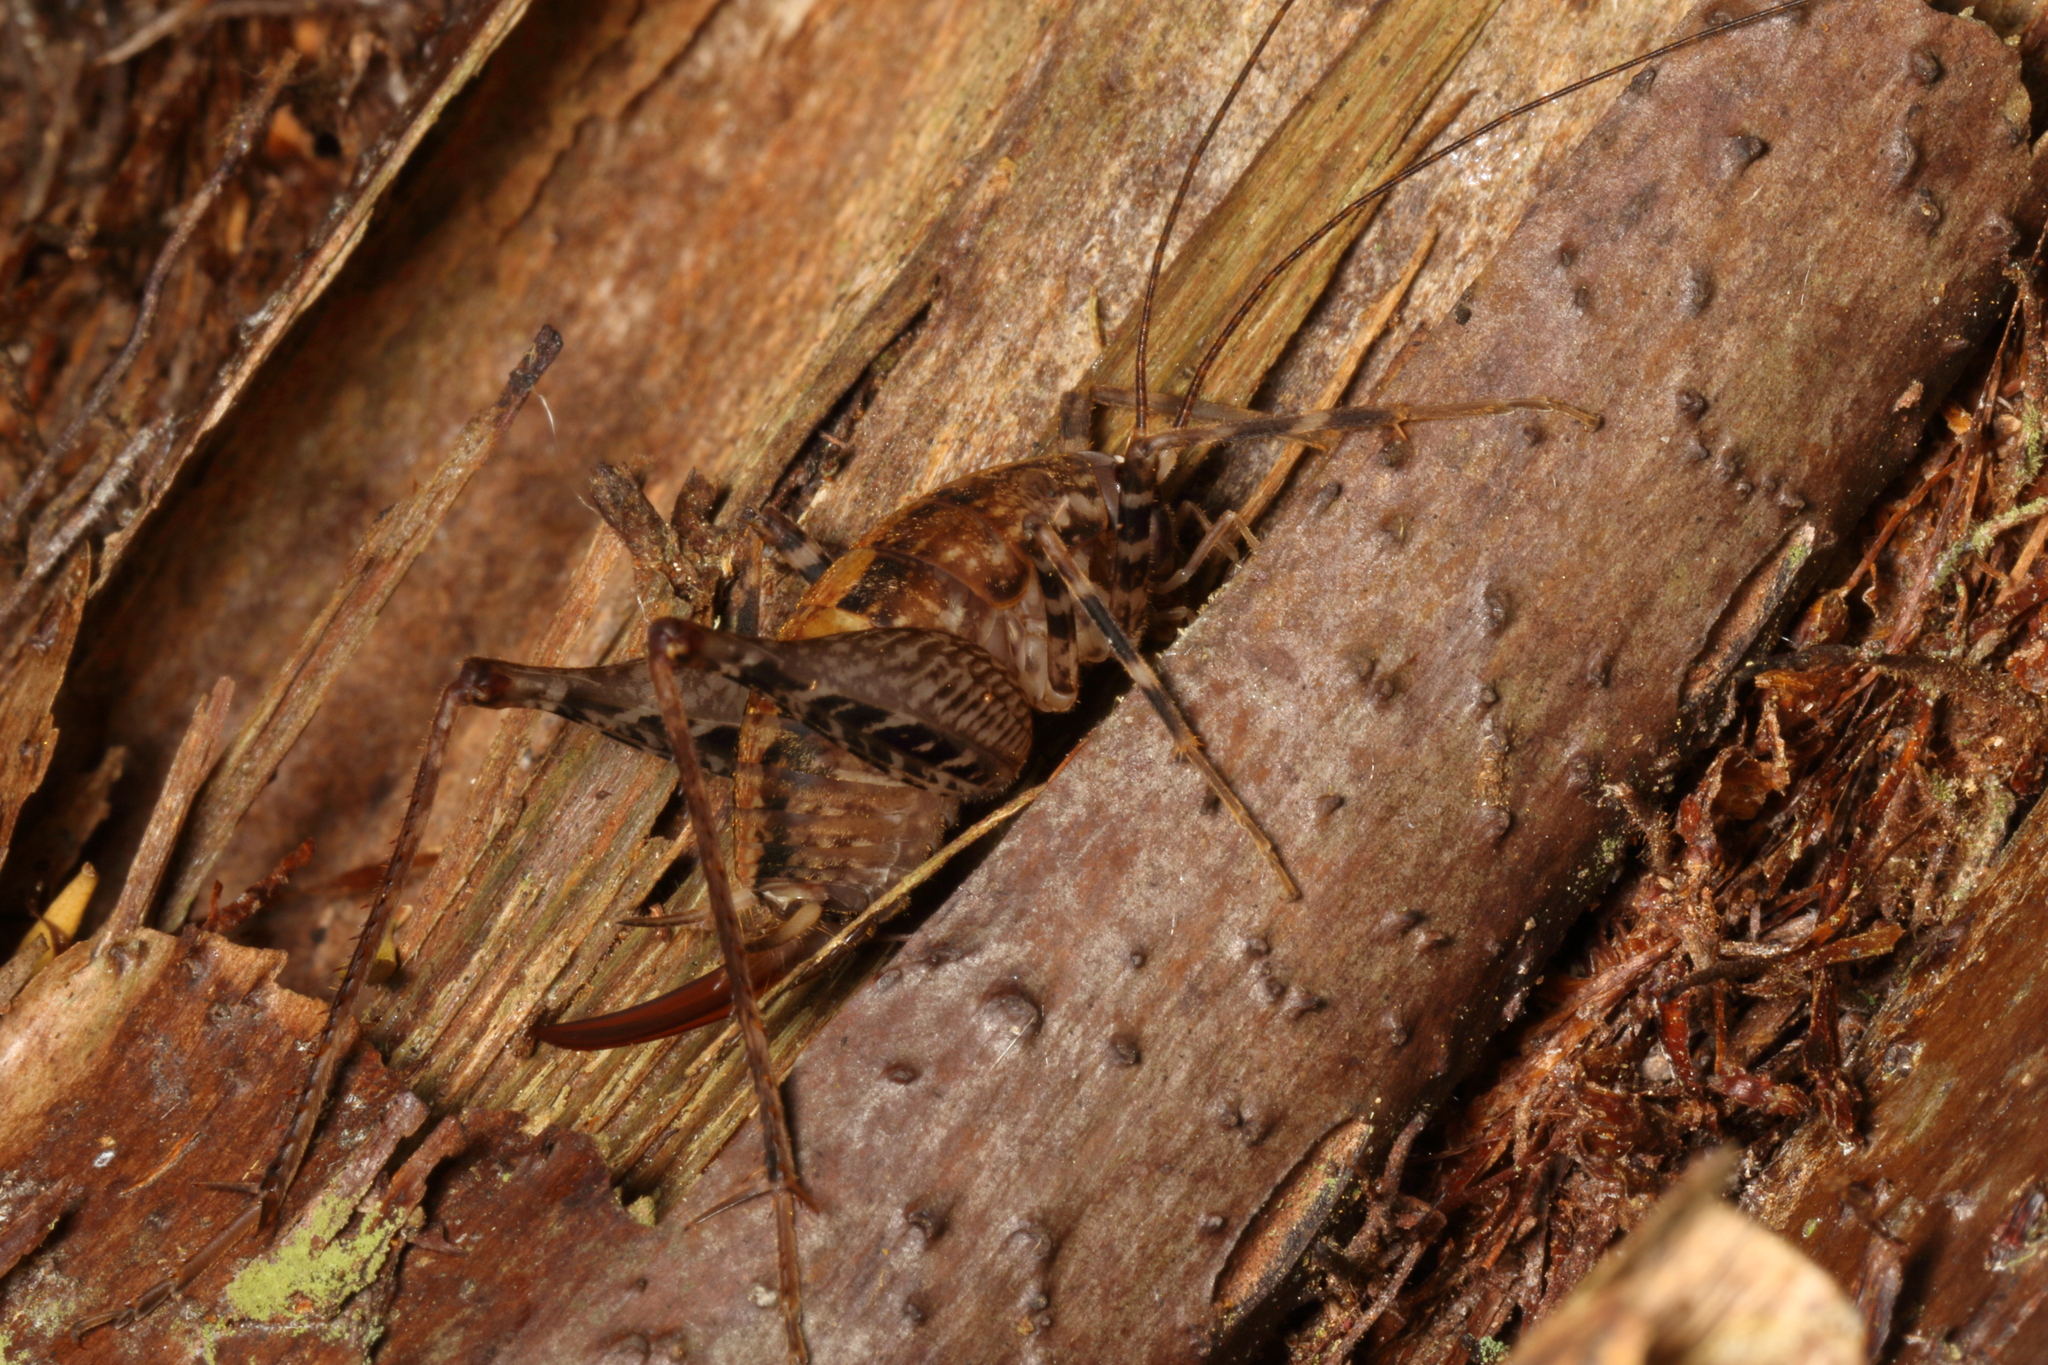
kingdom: Animalia
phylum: Arthropoda
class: Insecta
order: Orthoptera
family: Rhaphidophoridae
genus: Pleioplectron
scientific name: Pleioplectron hudsoni
